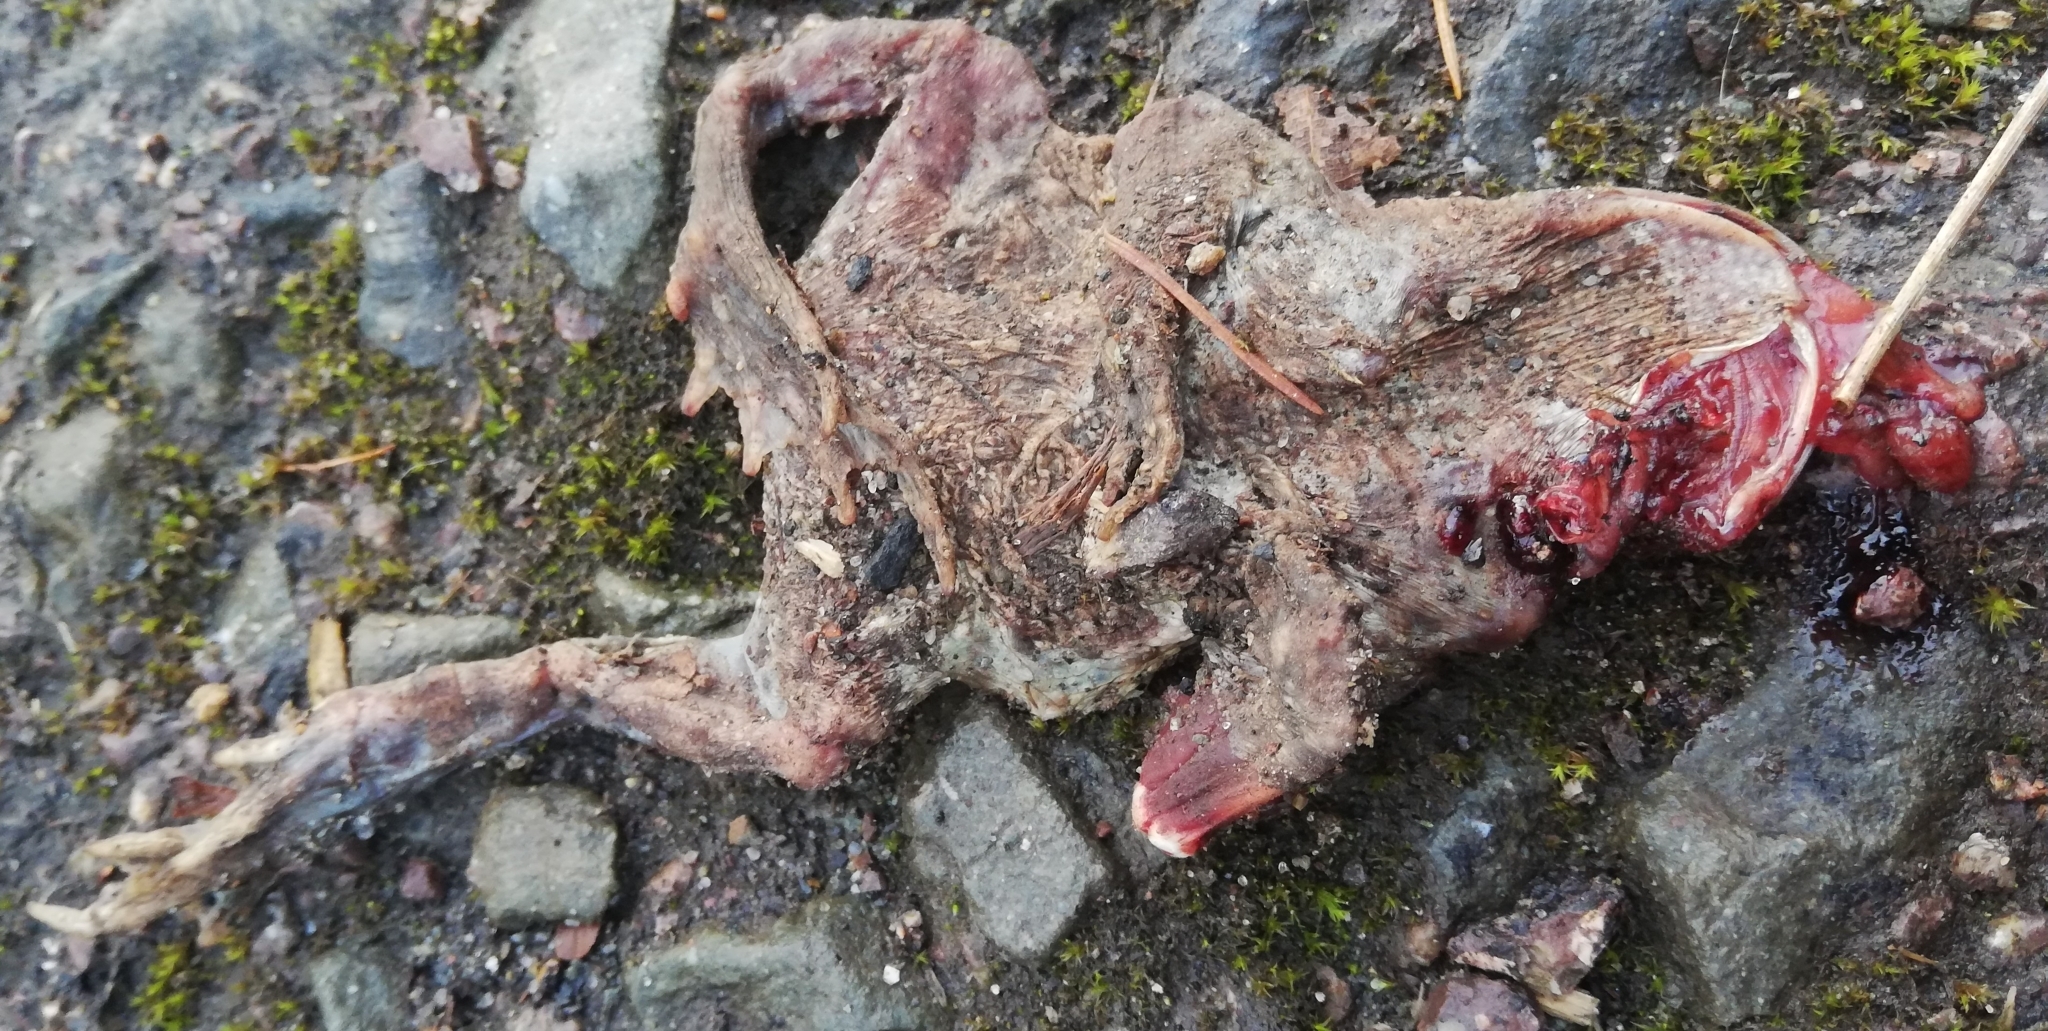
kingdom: Animalia
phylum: Chordata
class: Amphibia
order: Anura
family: Bufonidae
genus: Bufo
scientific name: Bufo bufo
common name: Common toad
